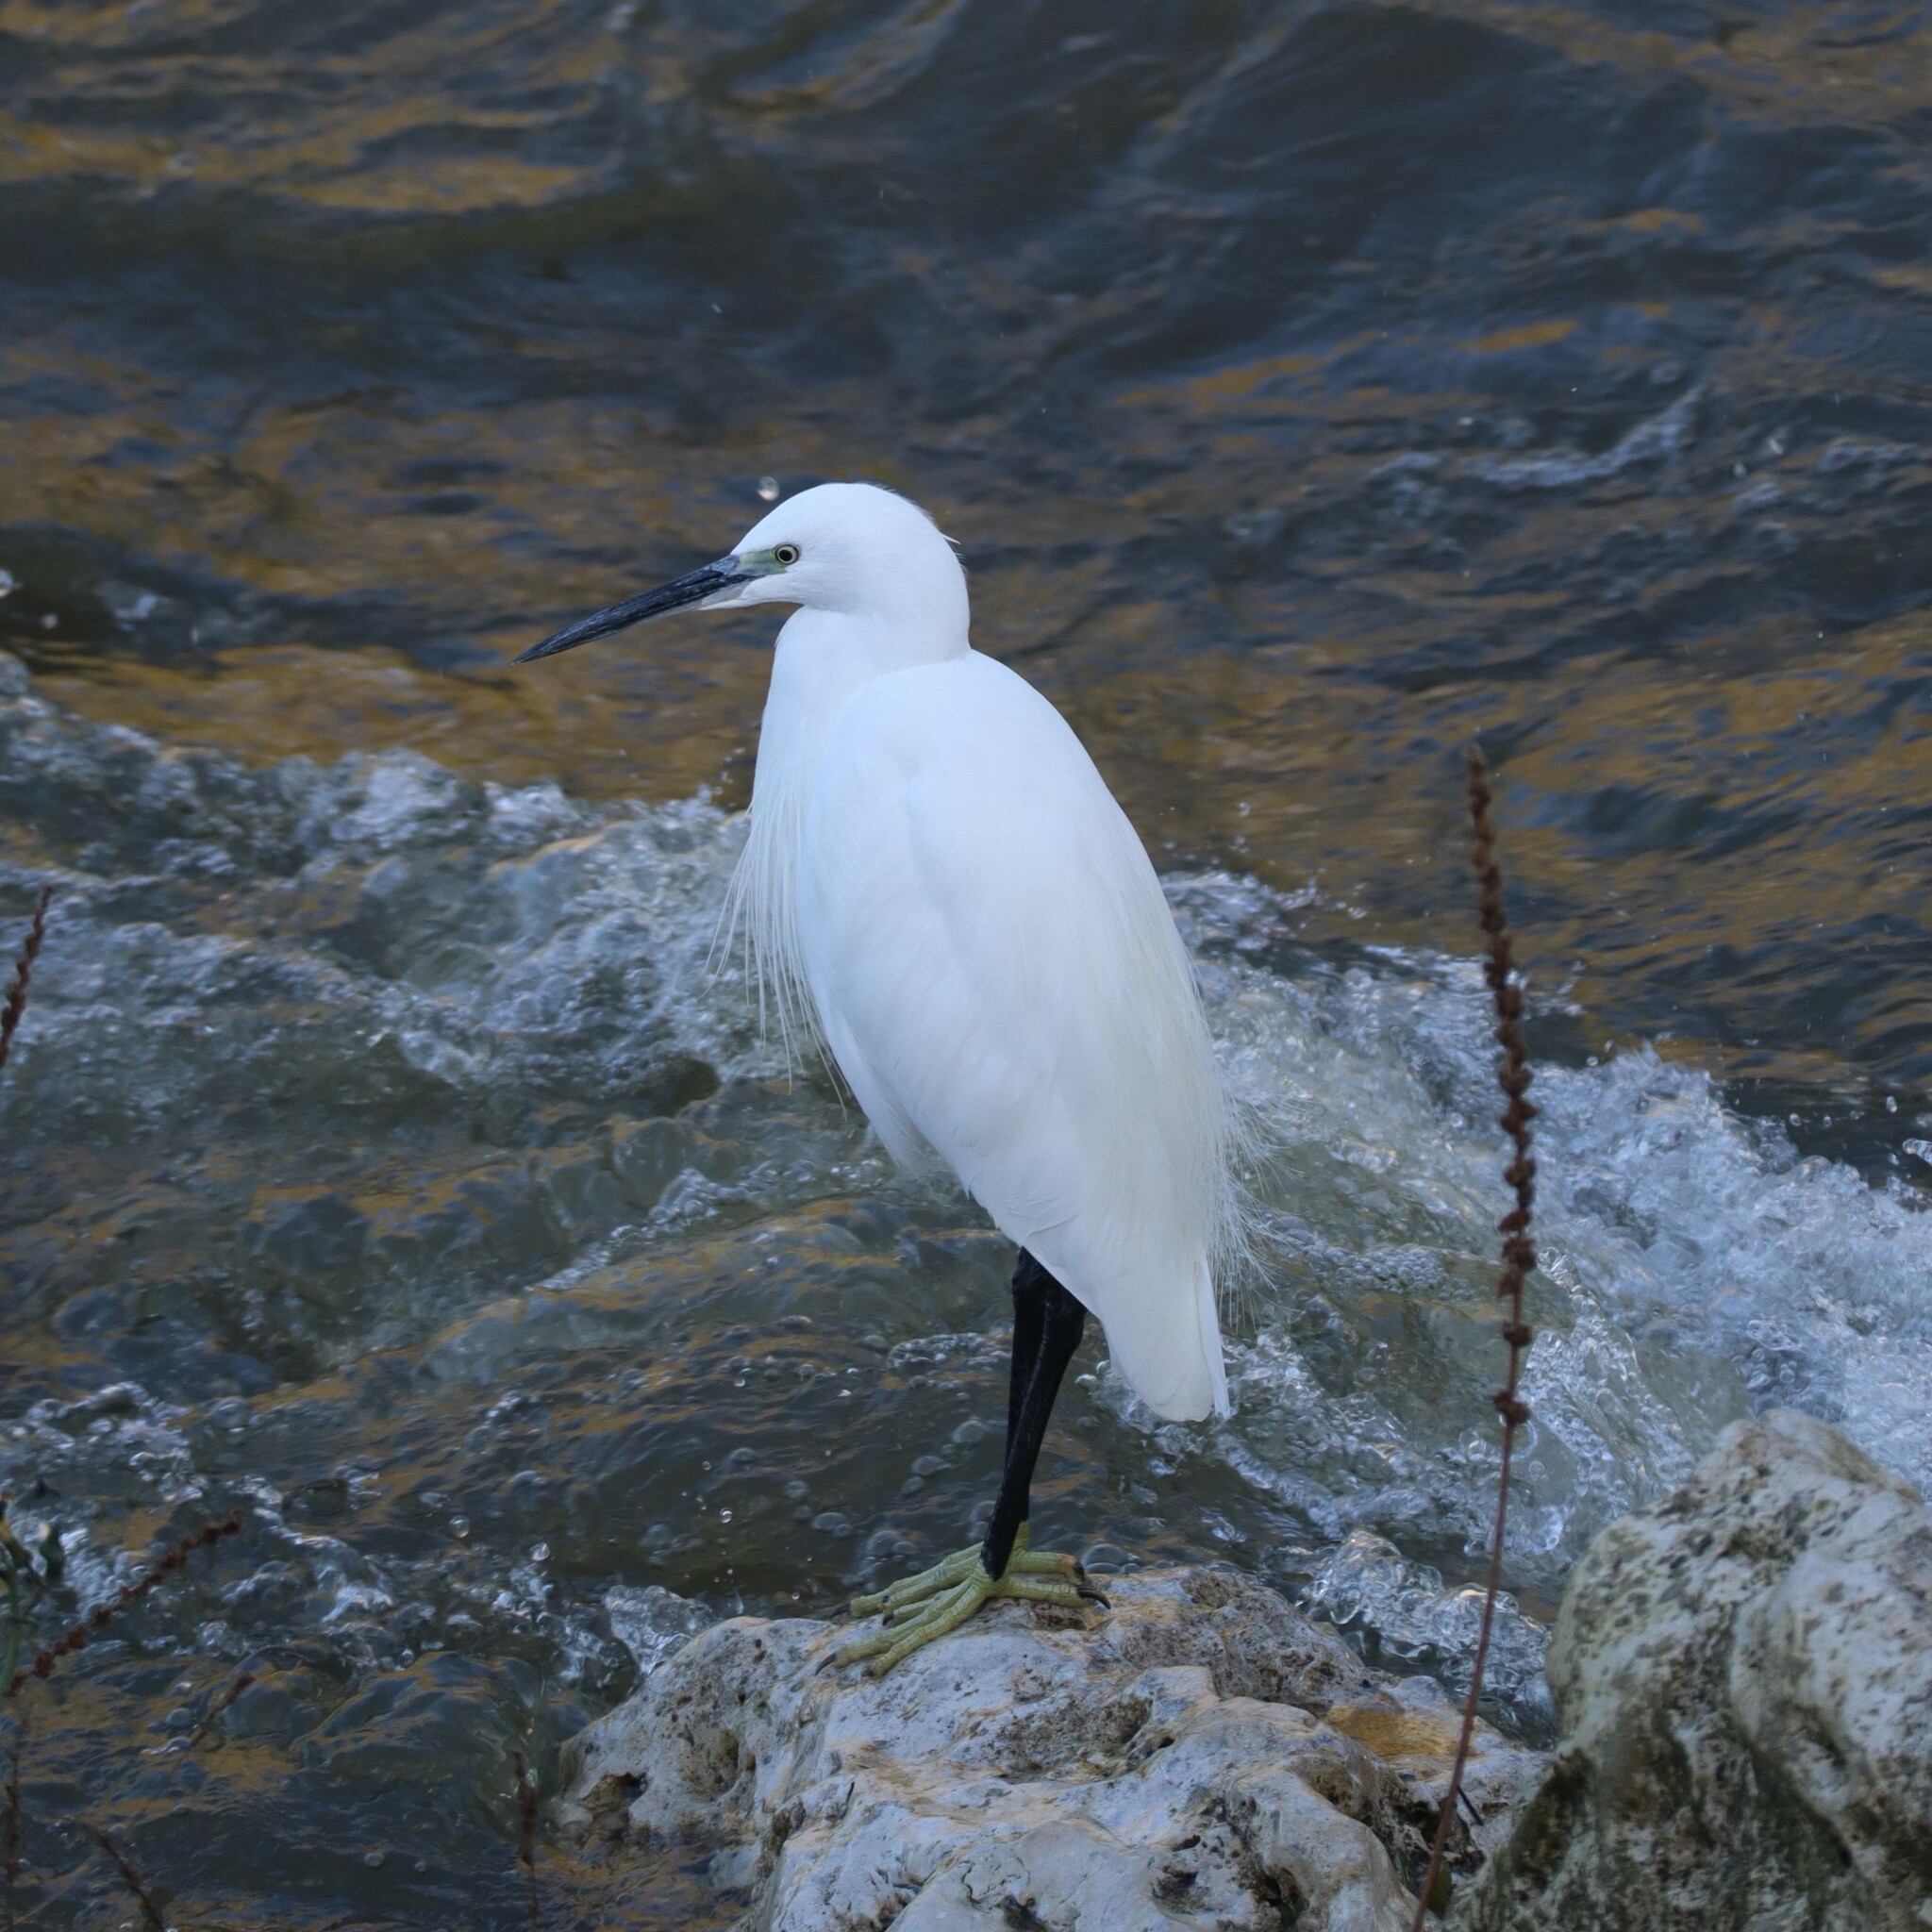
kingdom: Animalia
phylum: Chordata
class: Aves
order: Pelecaniformes
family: Ardeidae
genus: Egretta
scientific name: Egretta garzetta
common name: Little egret
